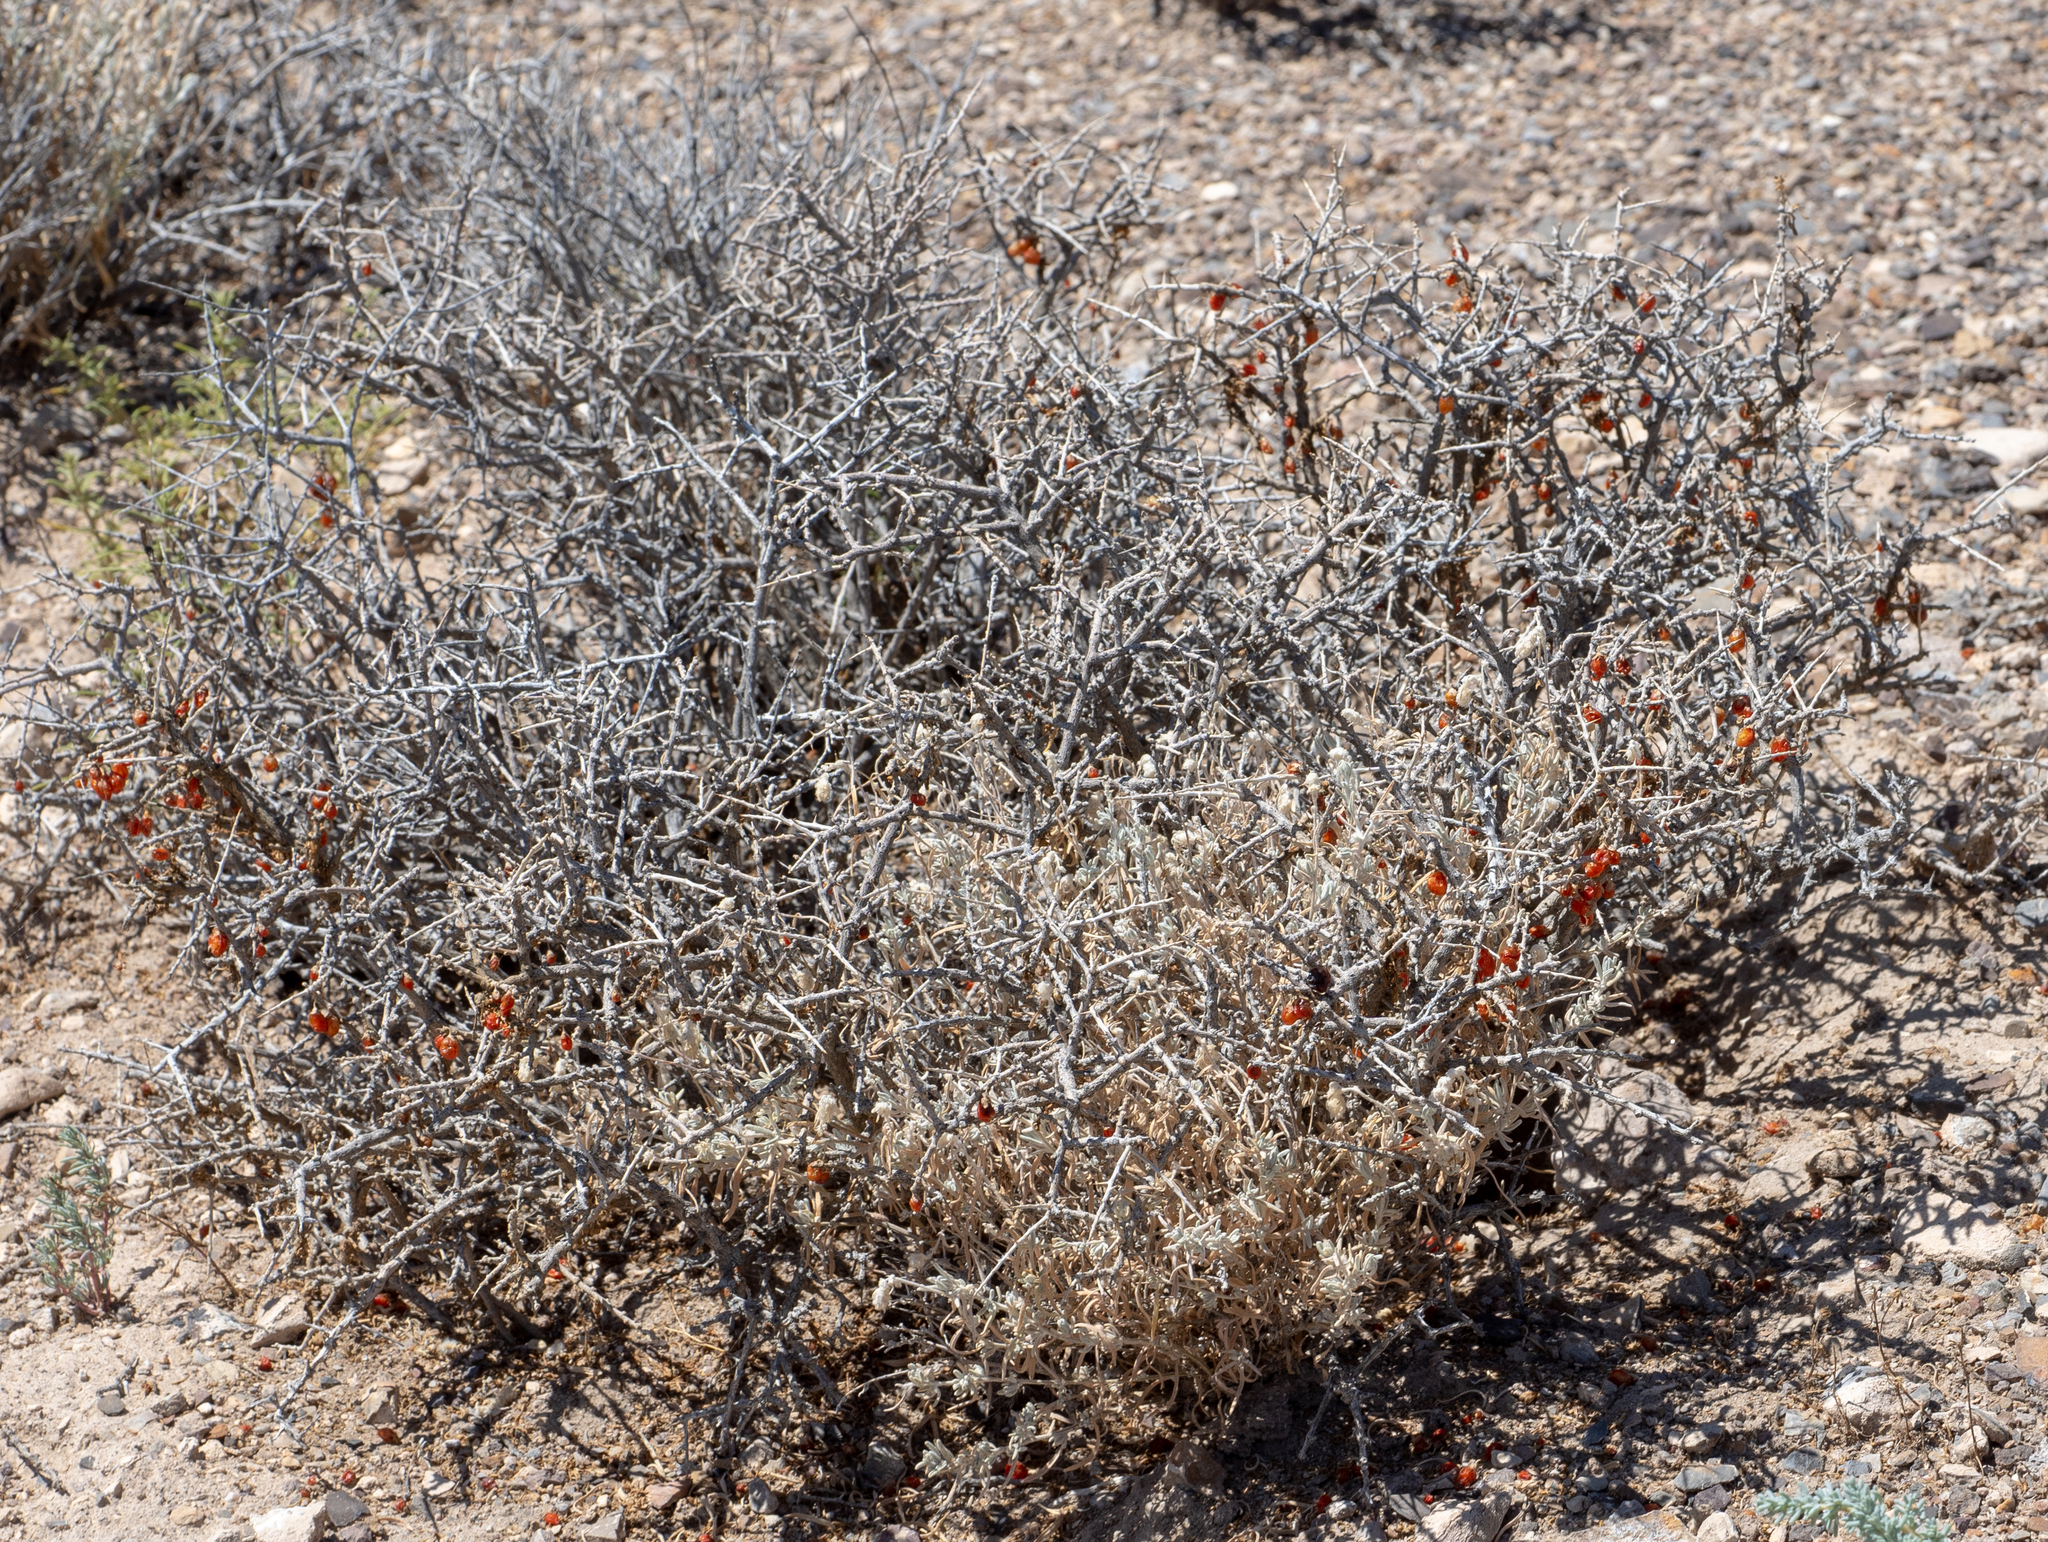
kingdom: Plantae
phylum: Tracheophyta
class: Magnoliopsida
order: Solanales
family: Solanaceae
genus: Lycium
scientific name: Lycium andersonii
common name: Water-jacket
